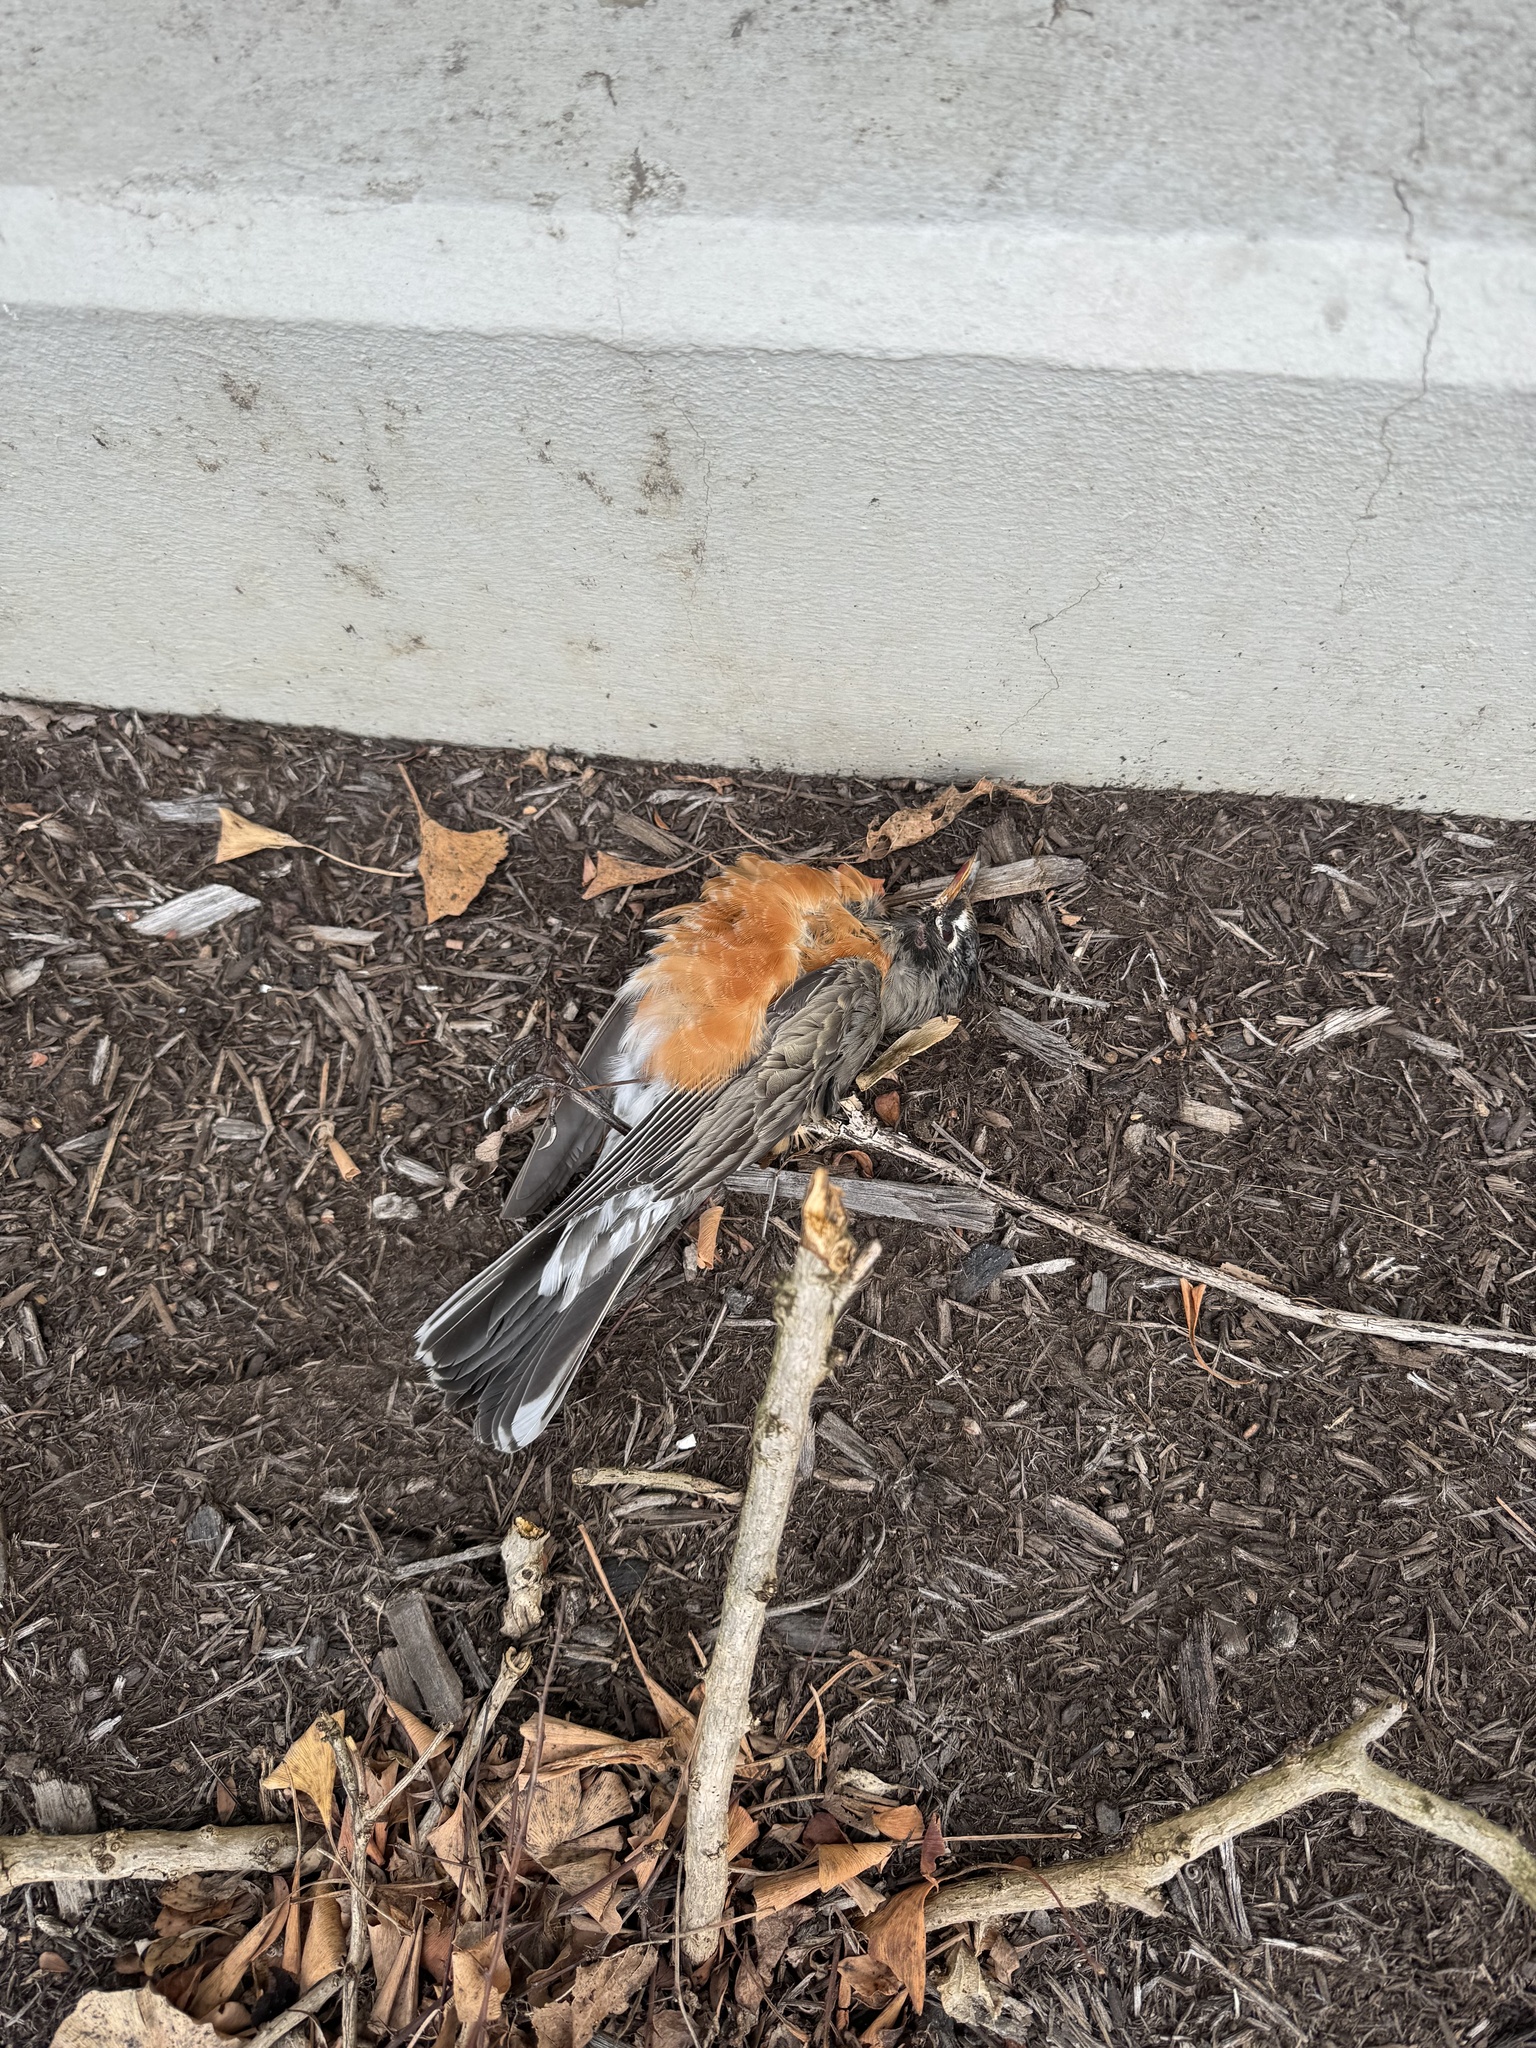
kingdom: Animalia
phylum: Chordata
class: Aves
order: Passeriformes
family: Turdidae
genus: Turdus
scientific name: Turdus migratorius
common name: American robin
